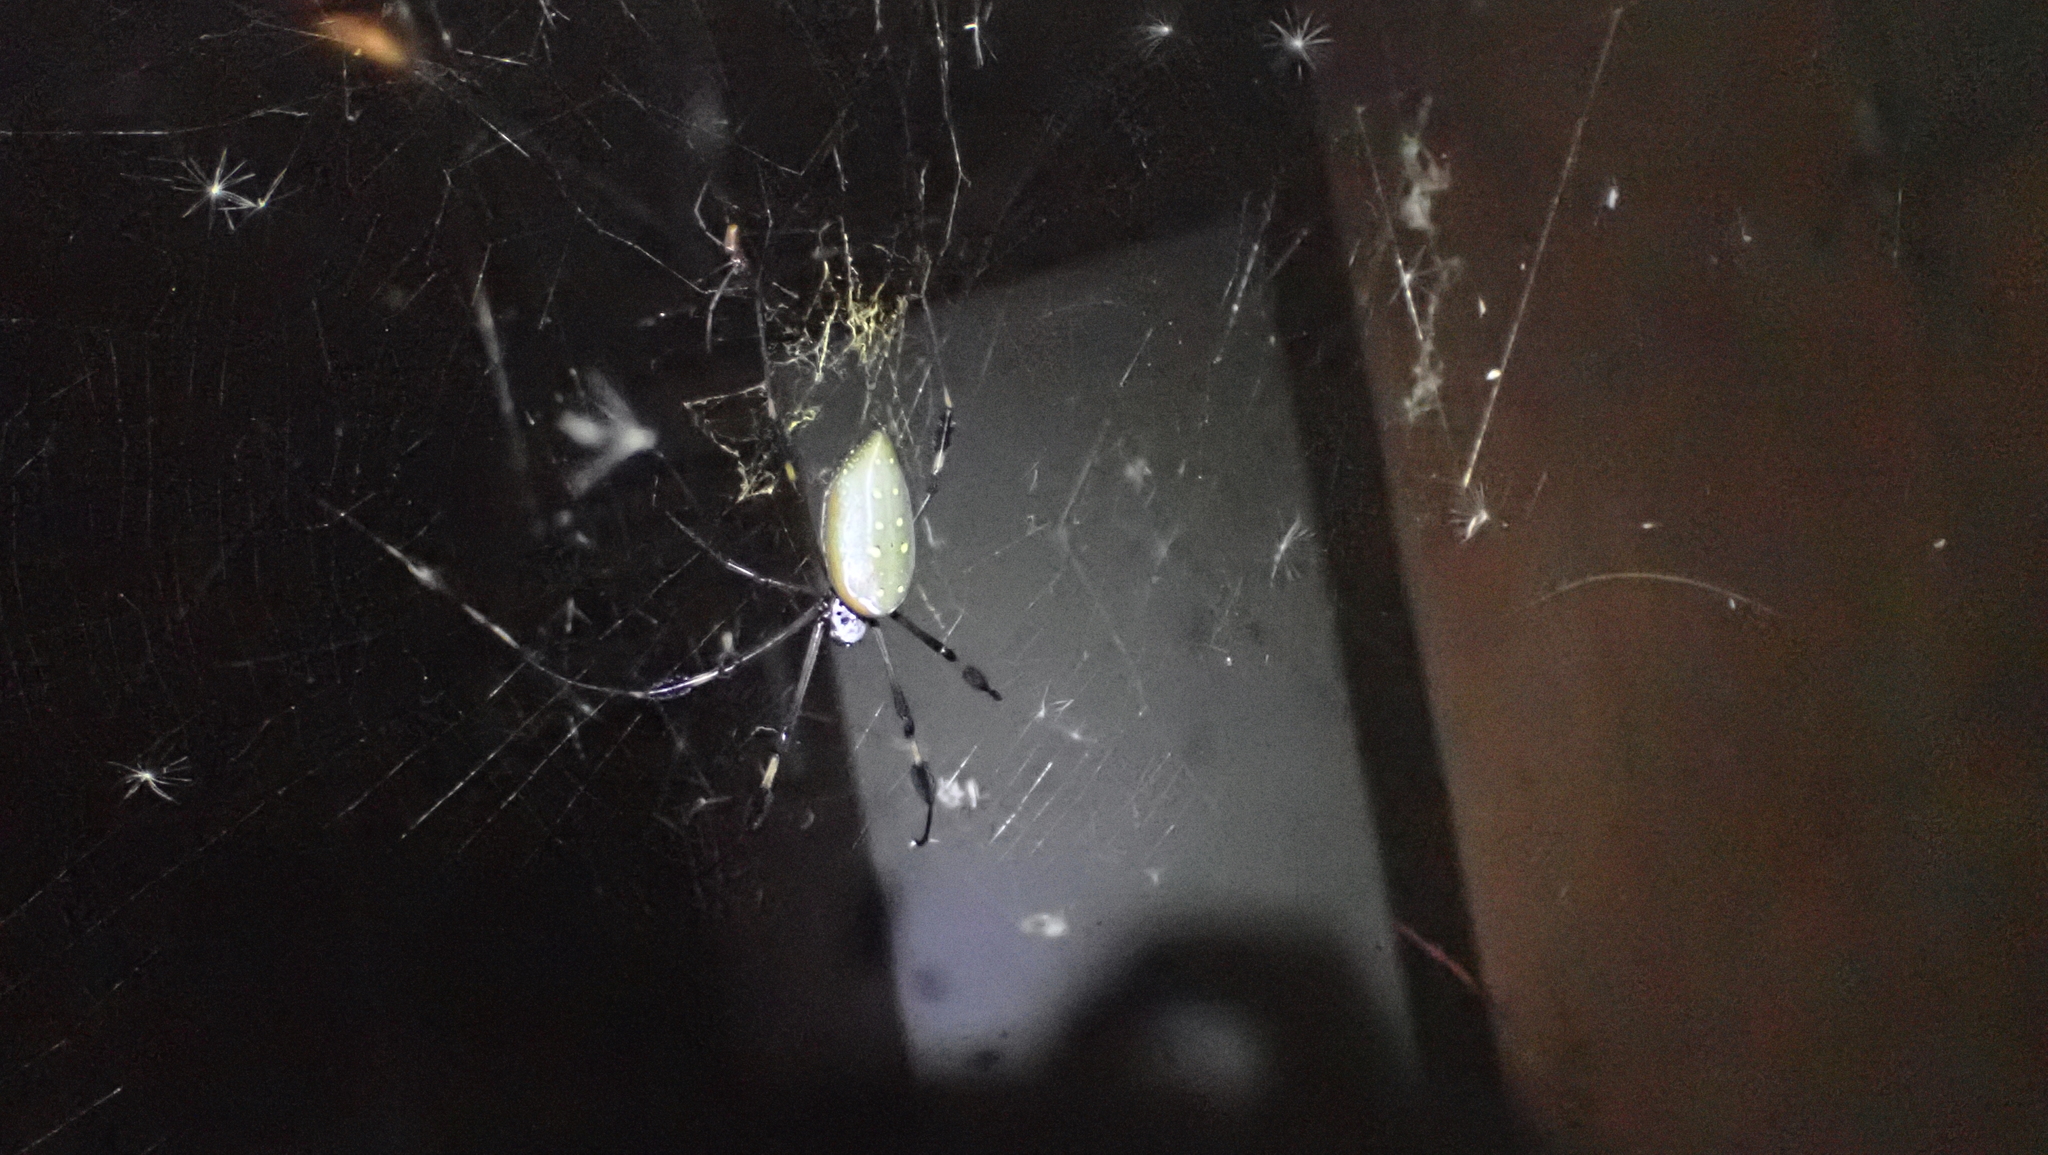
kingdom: Animalia
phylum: Arthropoda
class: Arachnida
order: Araneae
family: Araneidae
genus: Trichonephila
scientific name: Trichonephila clavipes
